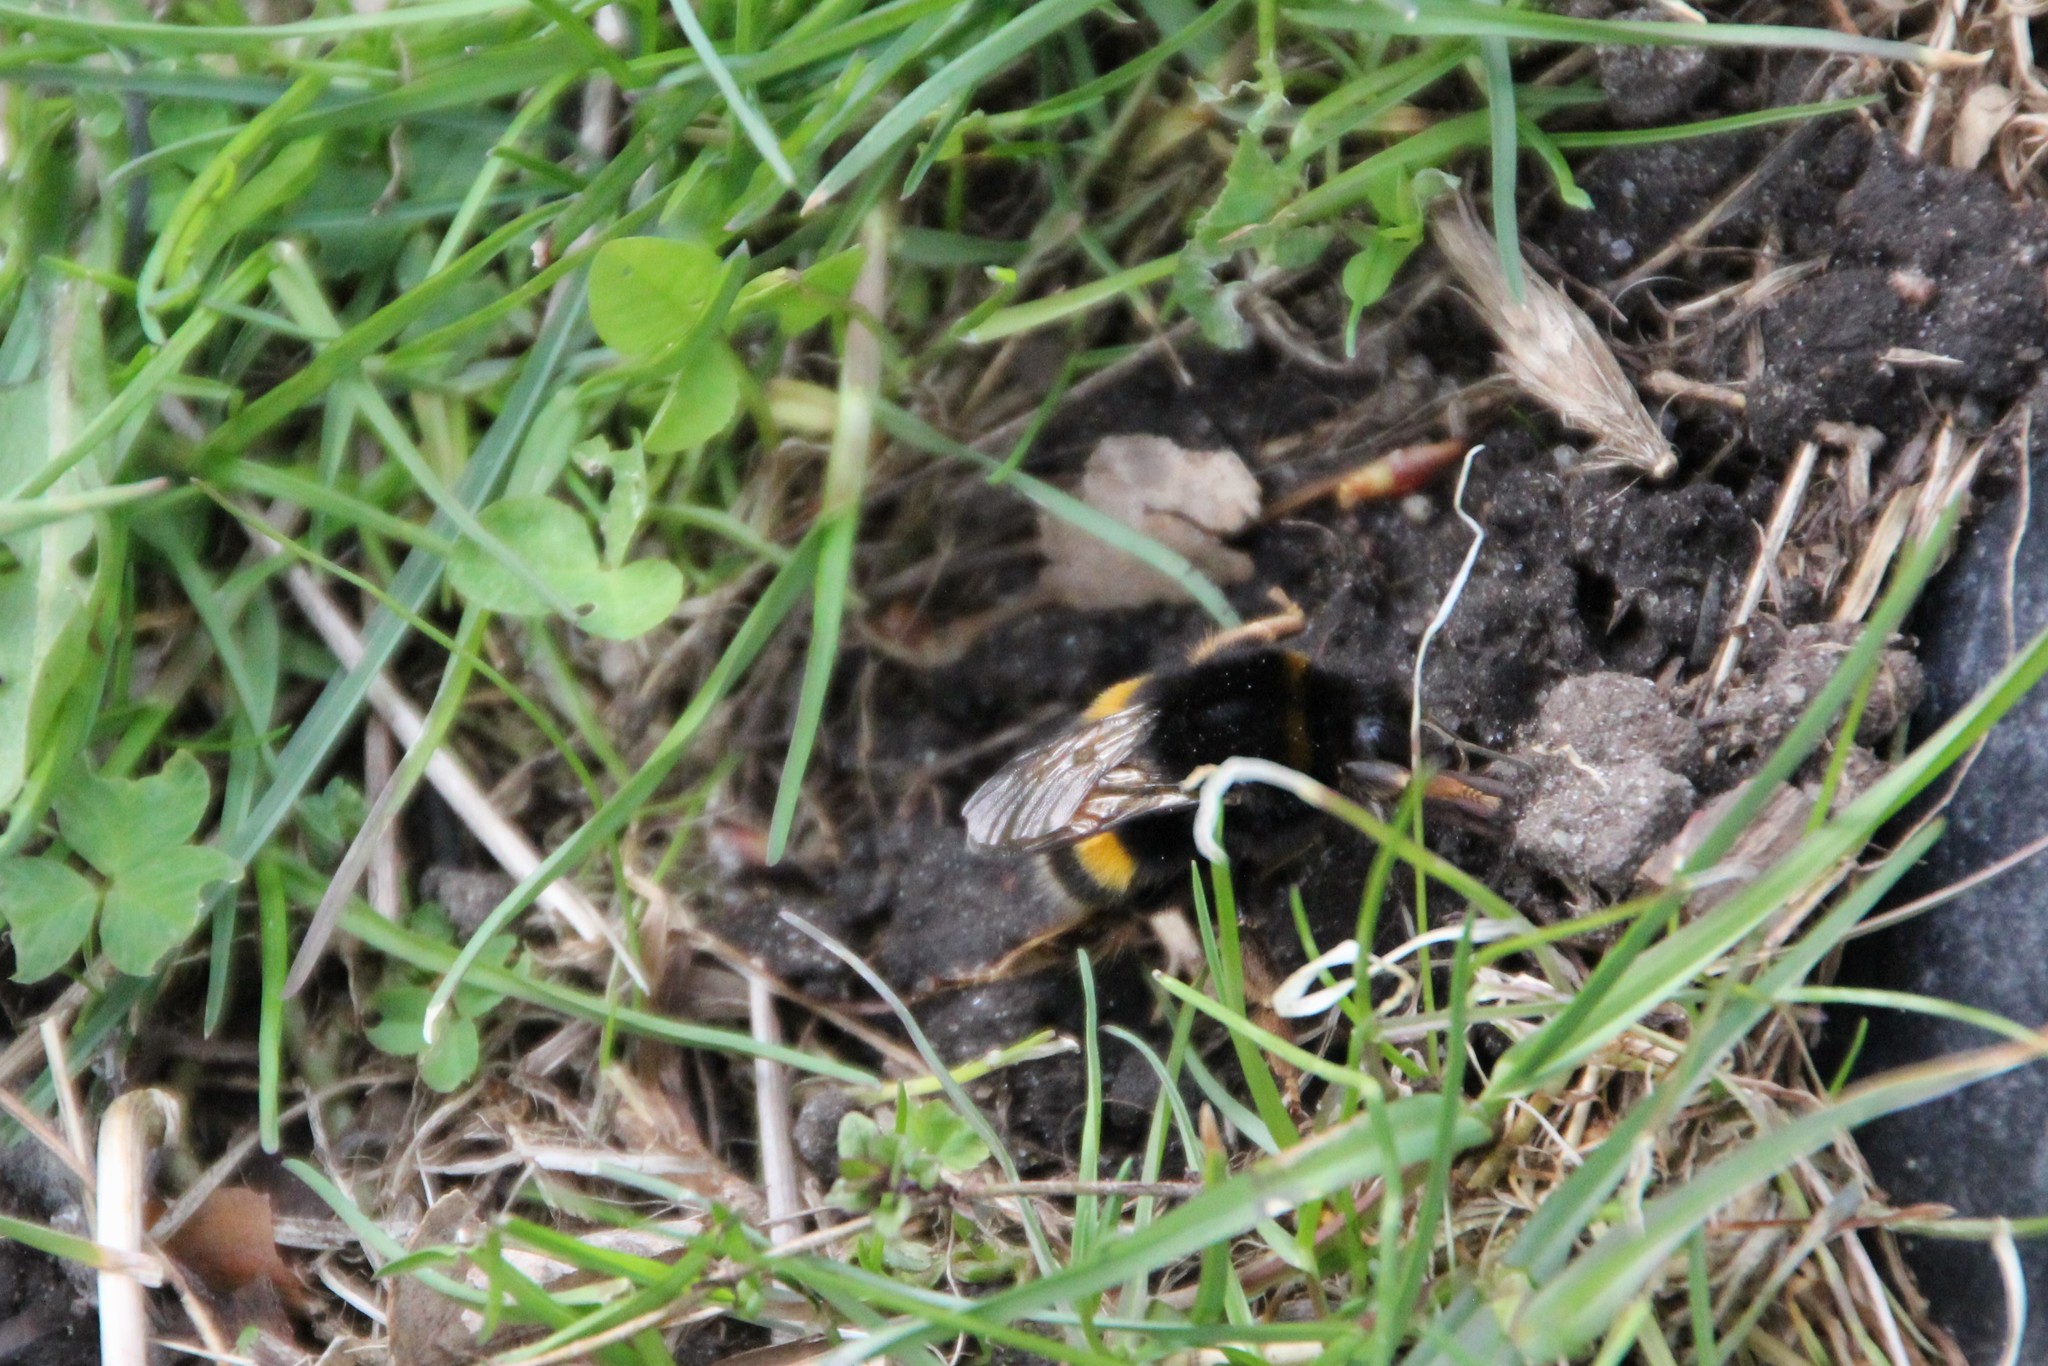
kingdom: Animalia
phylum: Arthropoda
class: Insecta
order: Hymenoptera
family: Apidae
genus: Bombus
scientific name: Bombus terrestris
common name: Buff-tailed bumblebee
